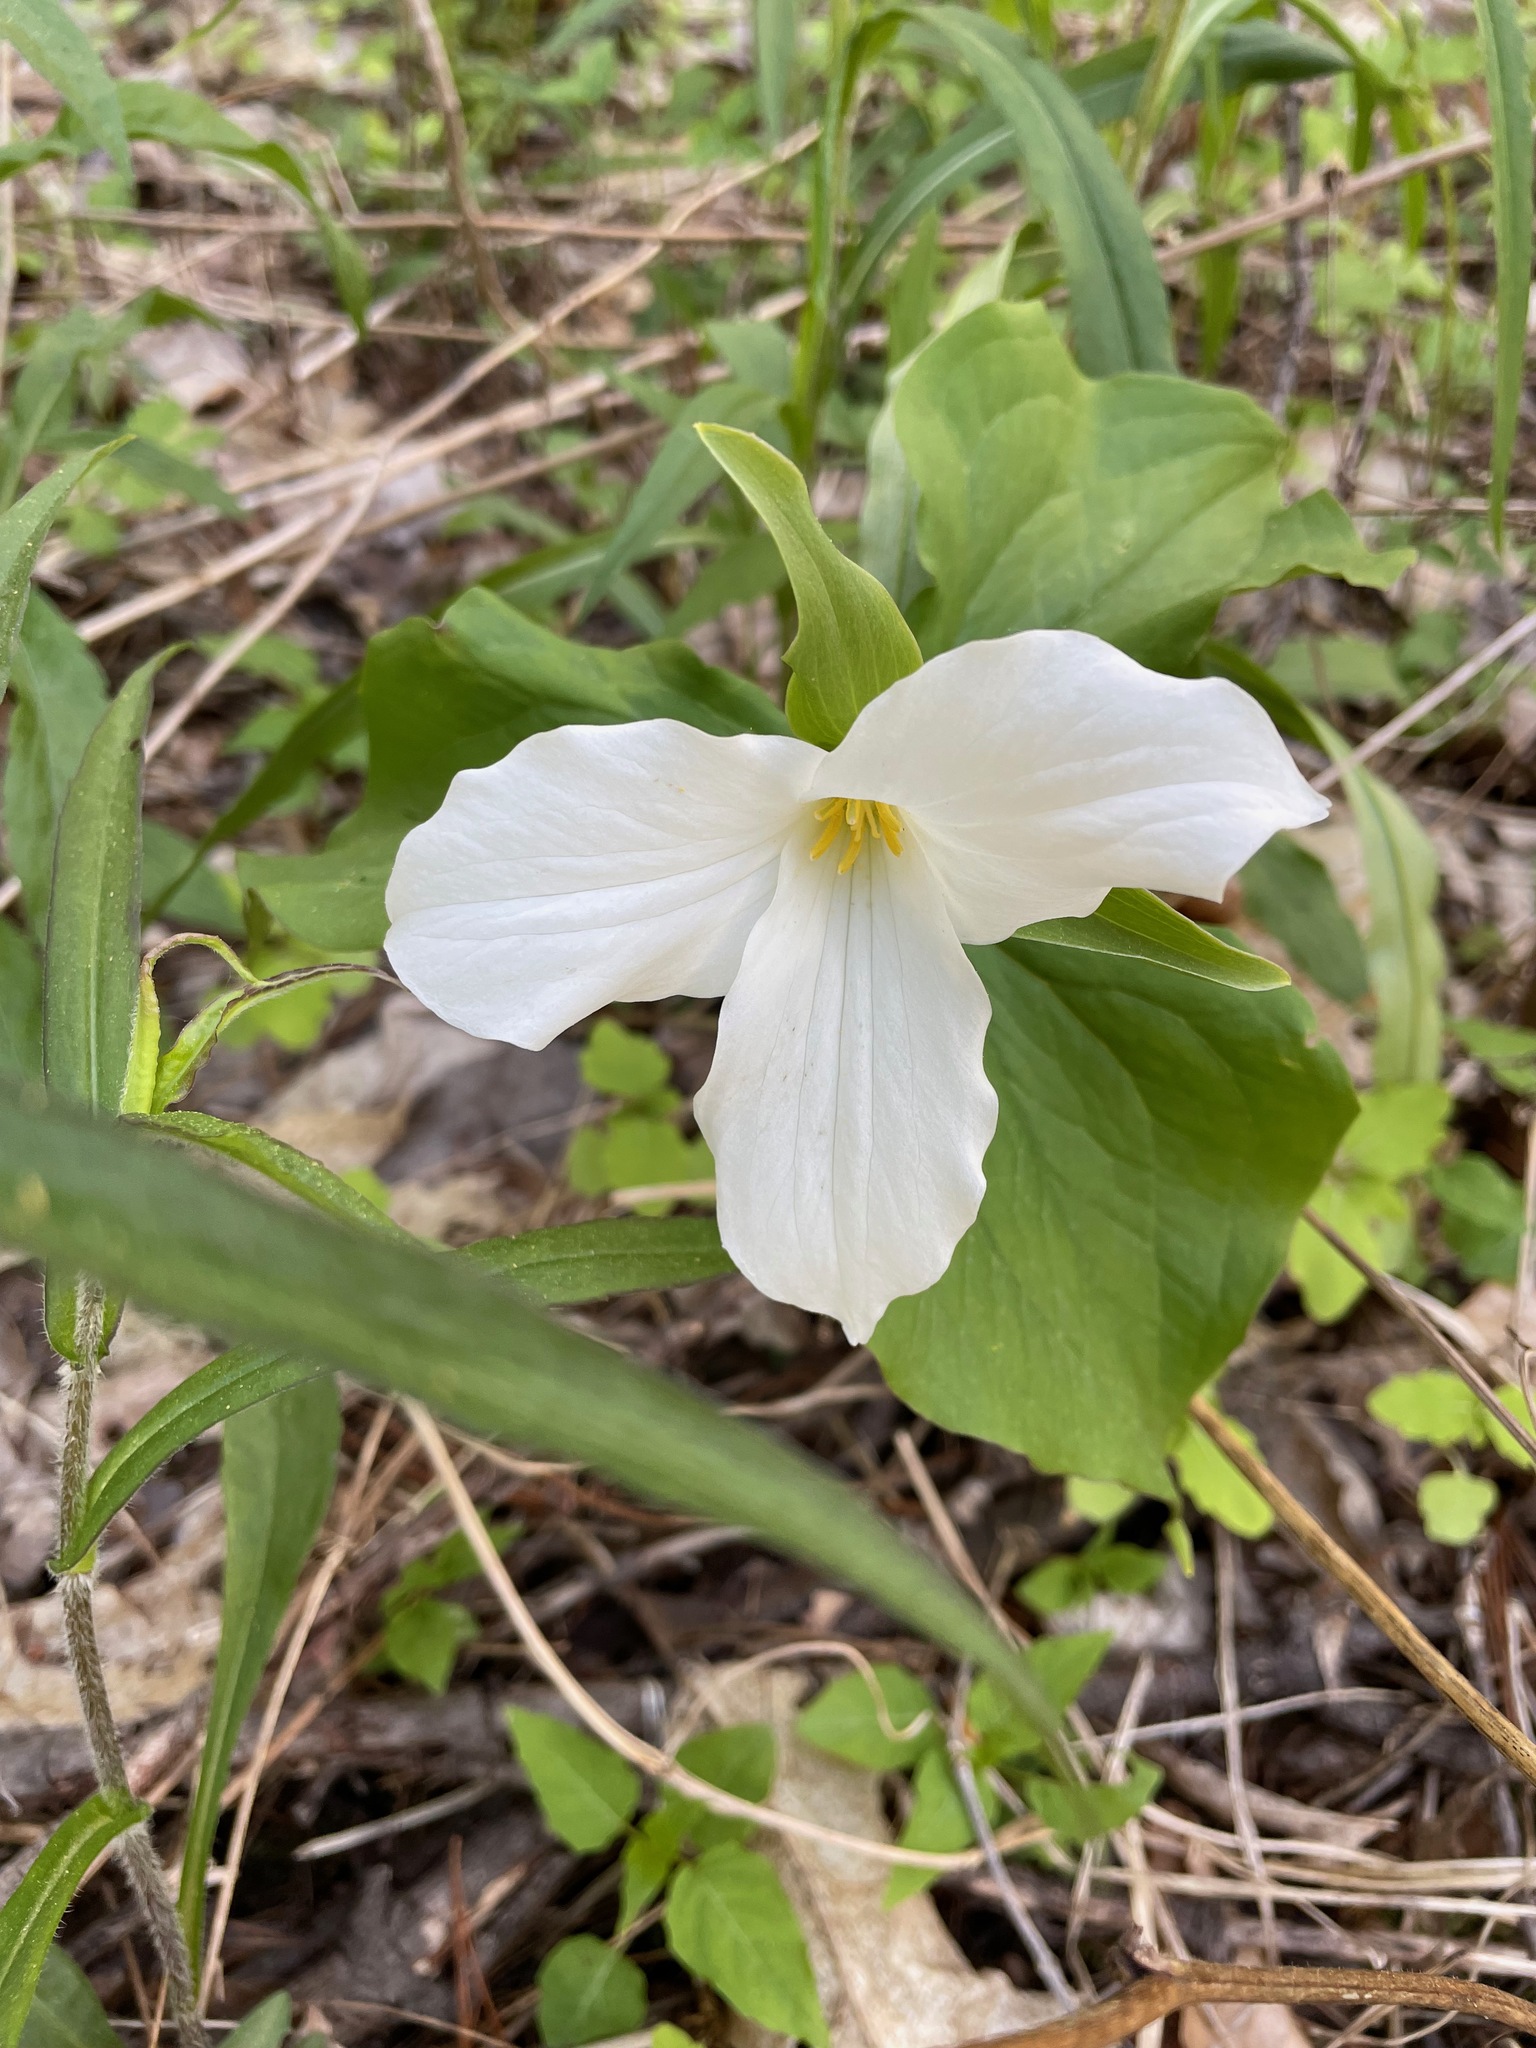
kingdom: Plantae
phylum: Tracheophyta
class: Liliopsida
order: Liliales
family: Melanthiaceae
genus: Trillium
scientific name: Trillium grandiflorum
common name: Great white trillium
